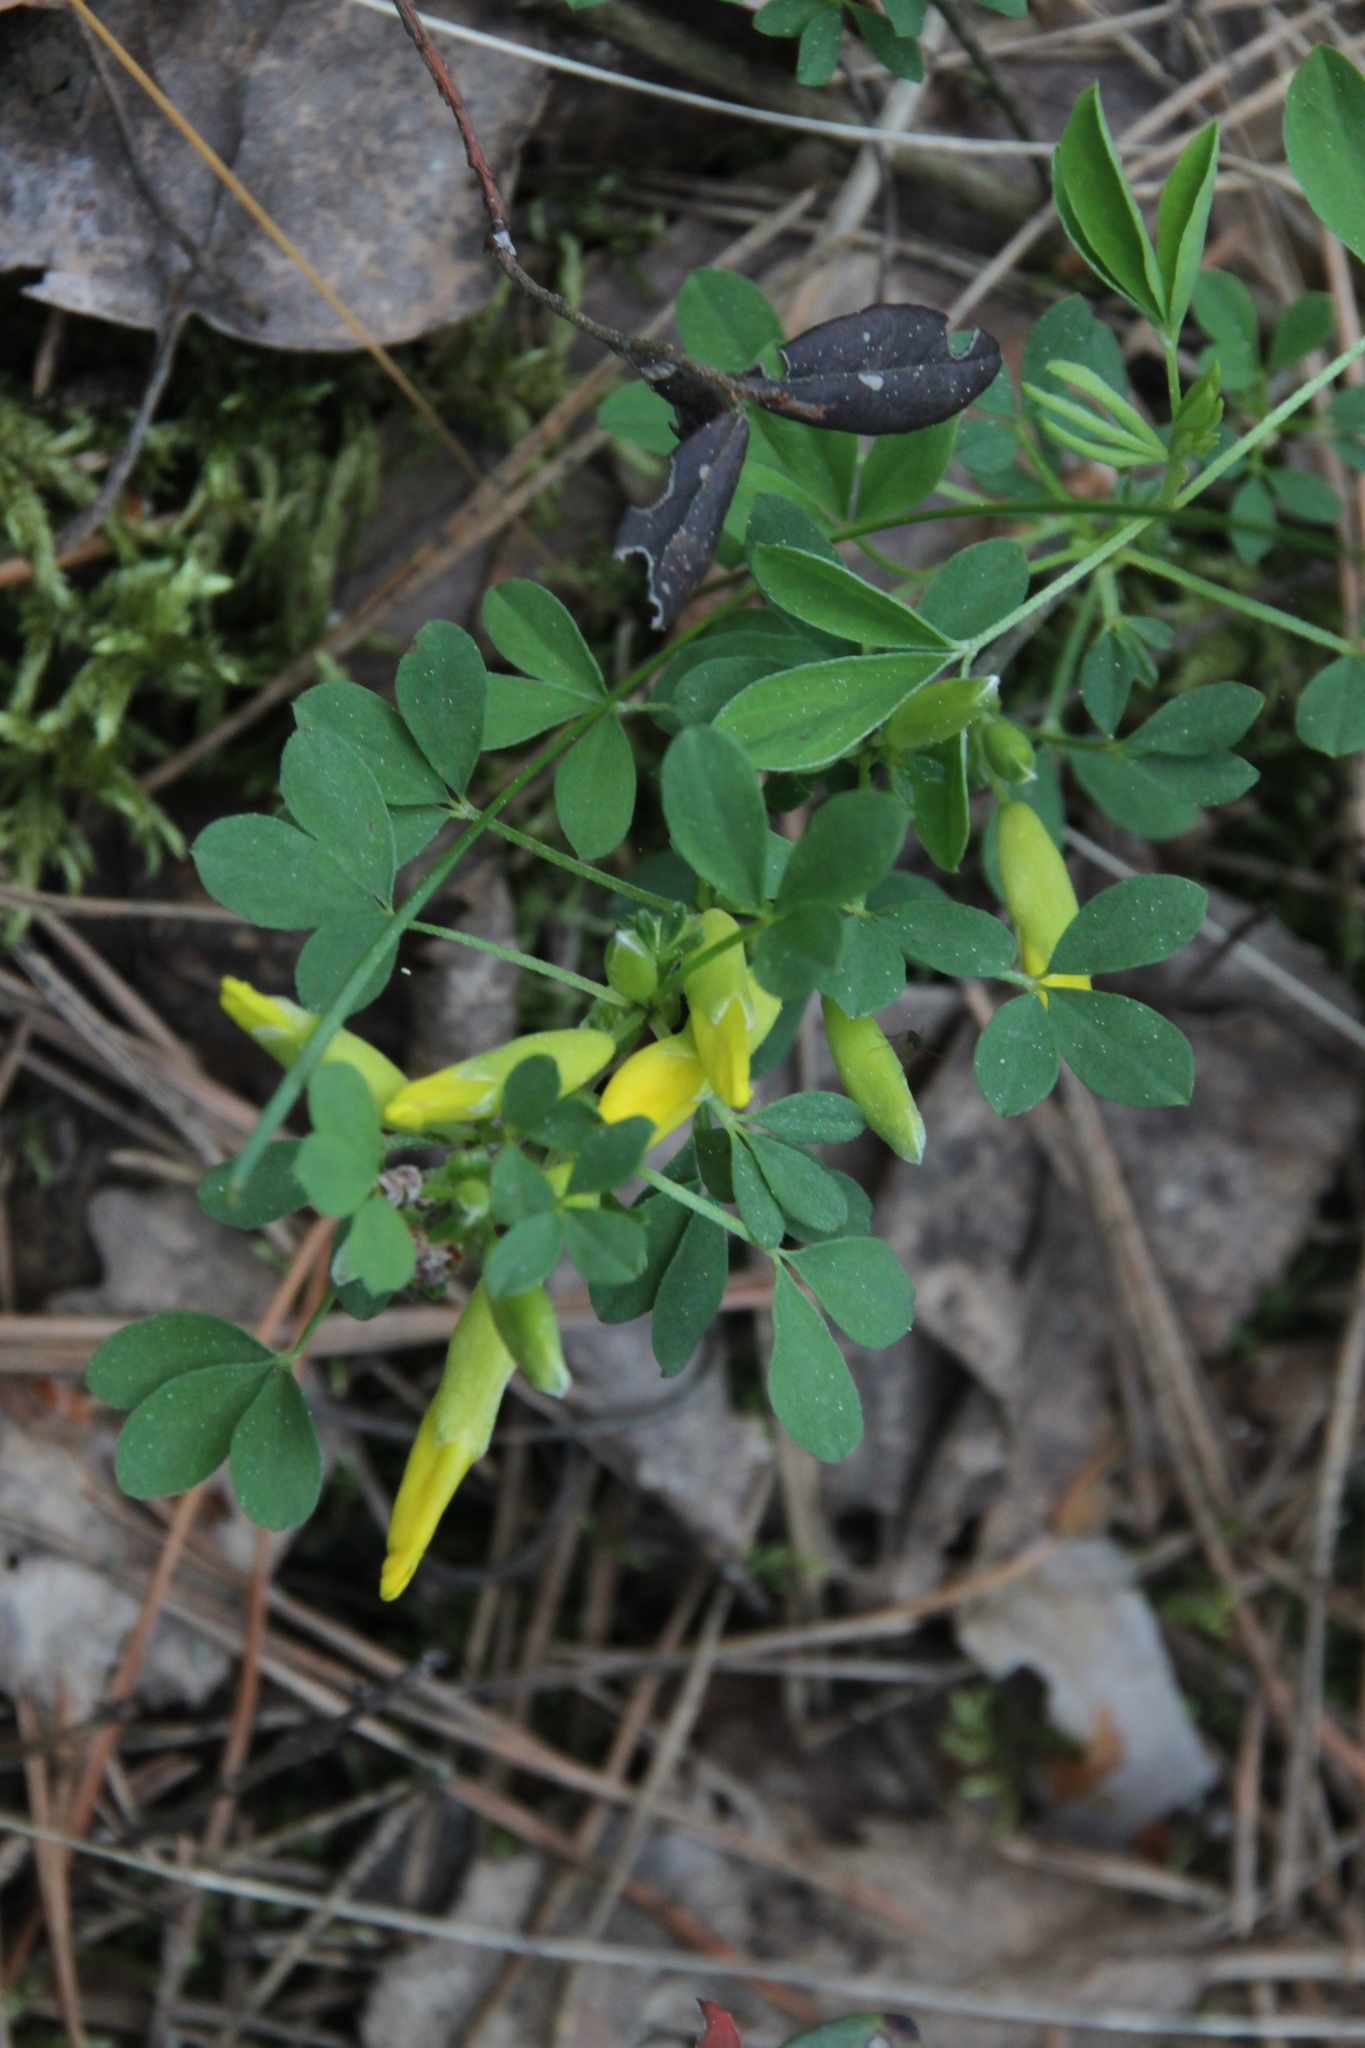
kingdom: Plantae
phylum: Tracheophyta
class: Magnoliopsida
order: Fabales
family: Fabaceae
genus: Chamaecytisus
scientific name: Chamaecytisus ruthenicus
